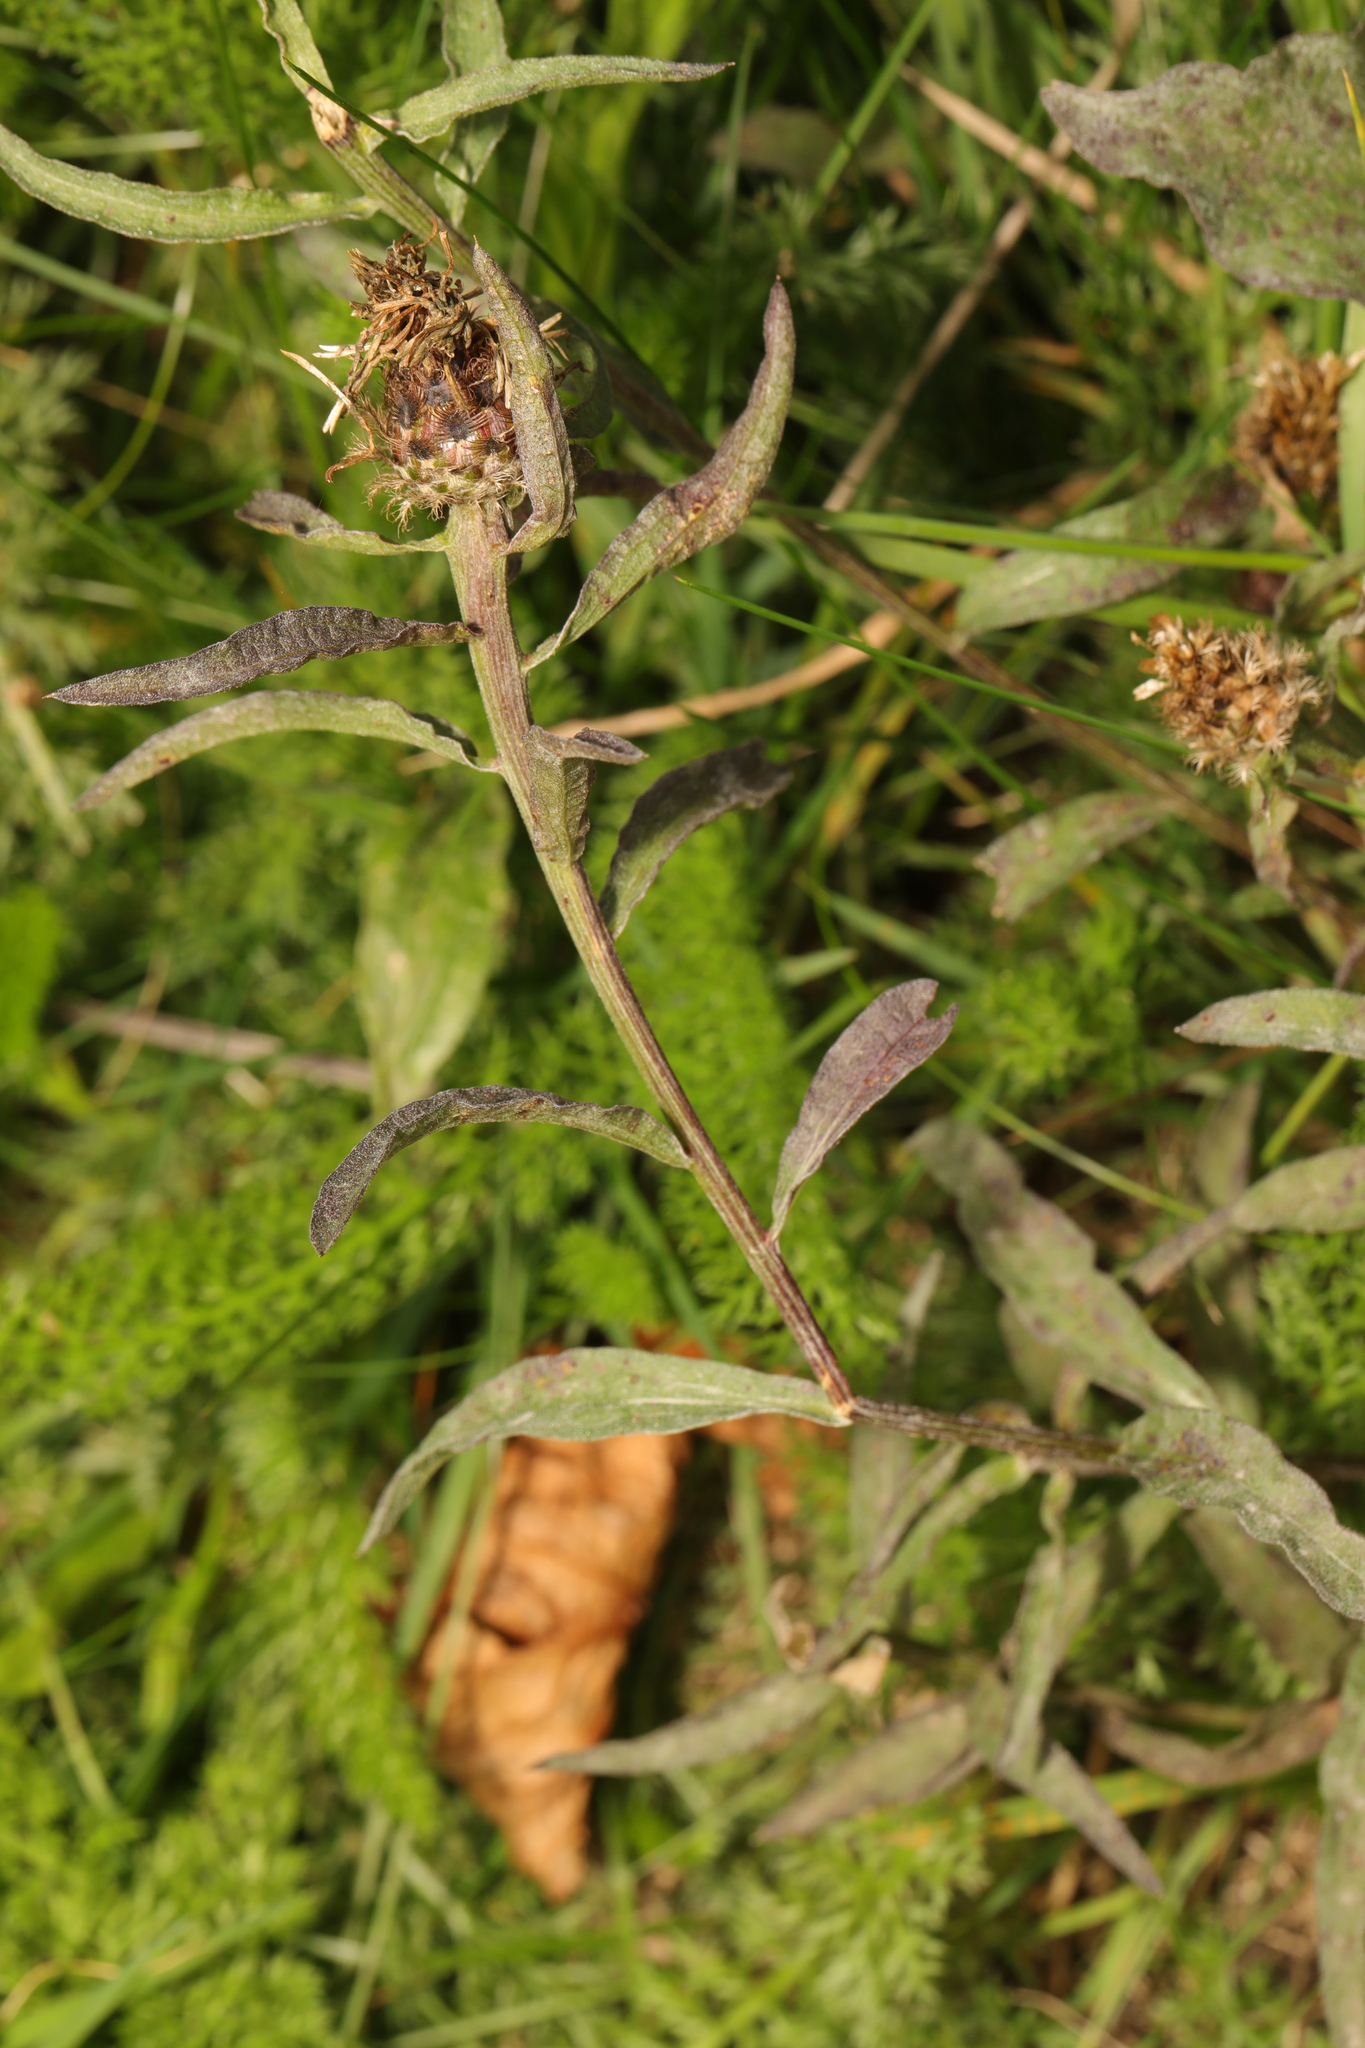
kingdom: Plantae
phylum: Tracheophyta
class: Magnoliopsida
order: Asterales
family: Asteraceae
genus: Centaurea
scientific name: Centaurea nigra
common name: Lesser knapweed
